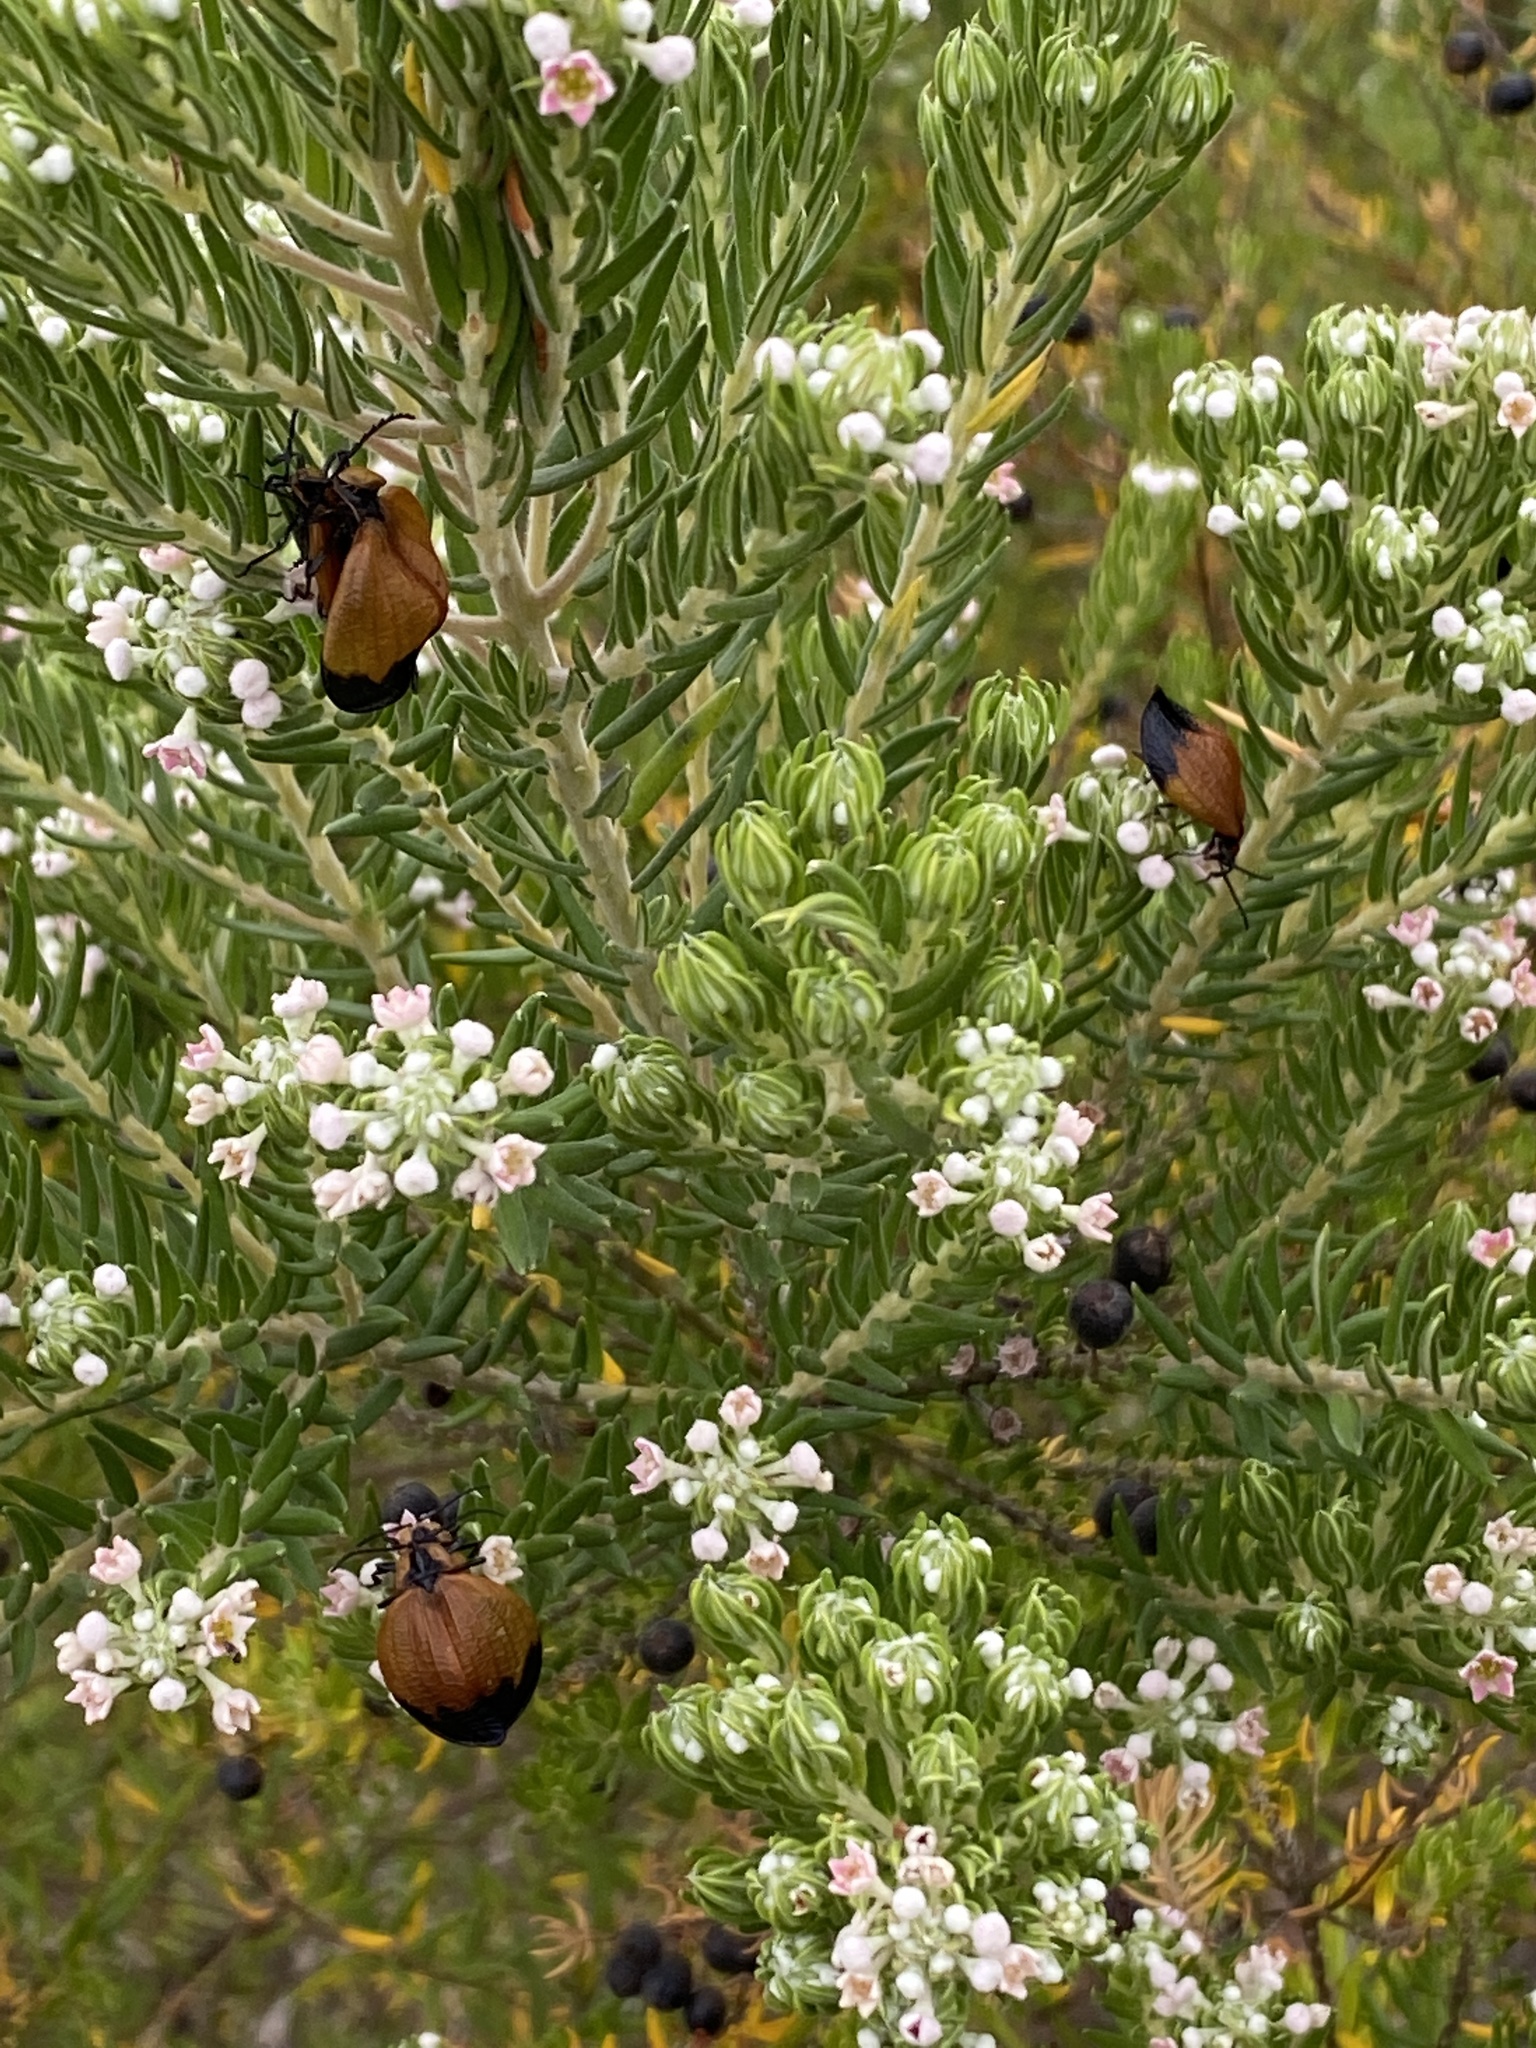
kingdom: Plantae
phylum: Tracheophyta
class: Magnoliopsida
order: Rosales
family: Rhamnaceae
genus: Phylica
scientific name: Phylica pinea
